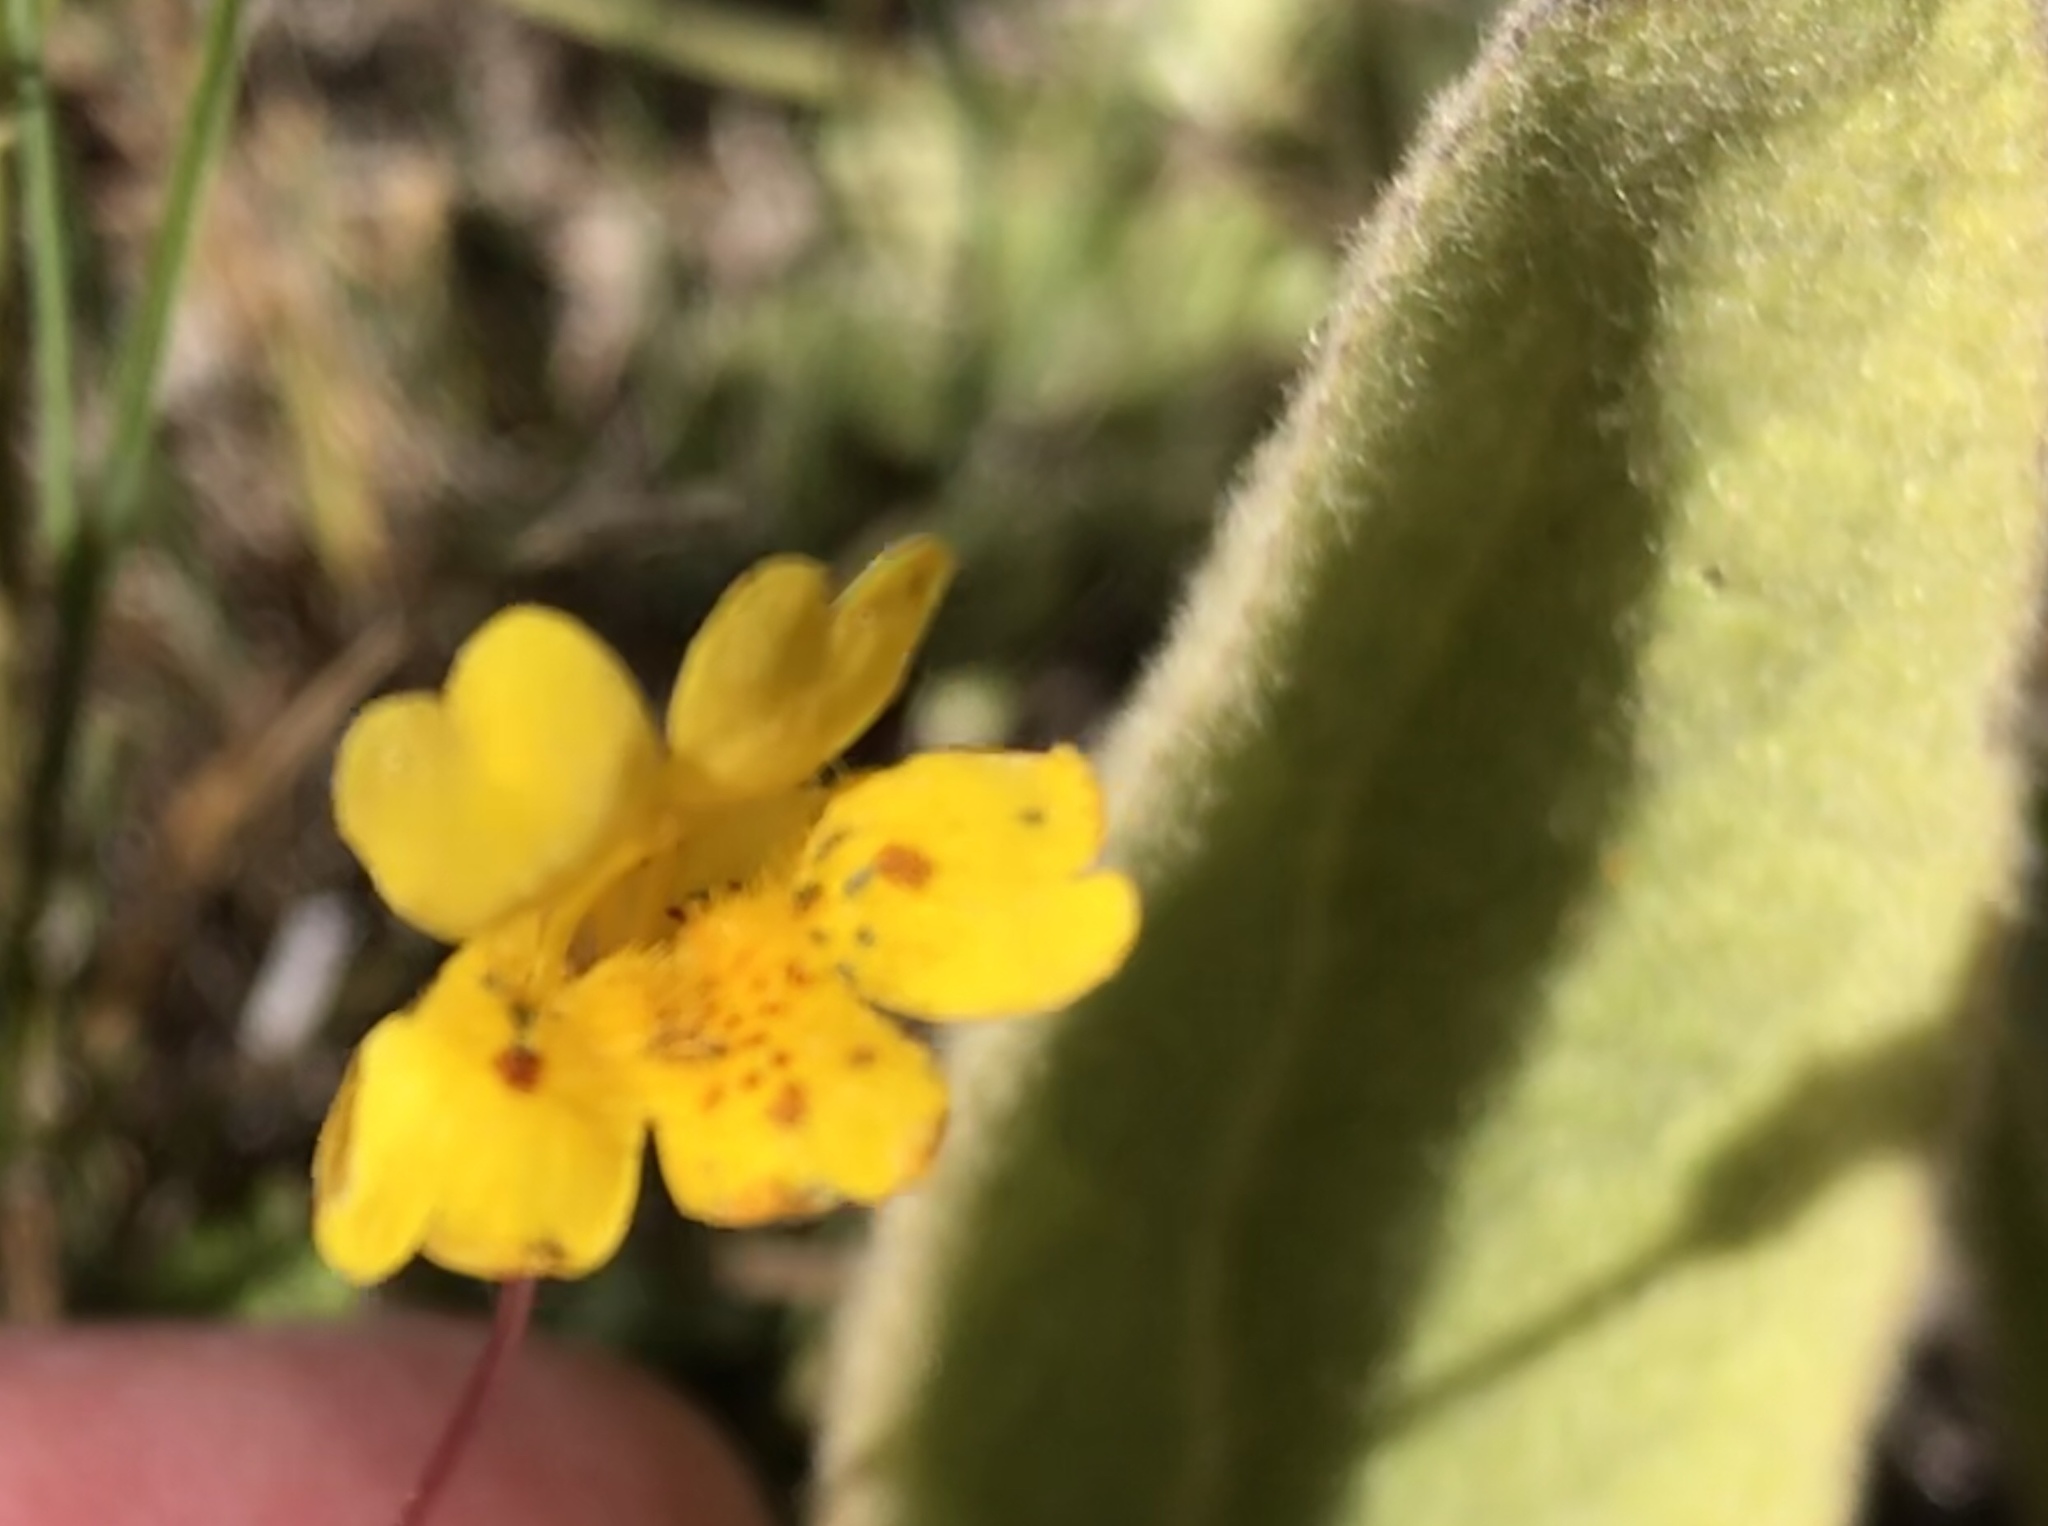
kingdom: Plantae
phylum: Tracheophyta
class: Magnoliopsida
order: Lamiales
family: Phrymaceae
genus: Erythranthe
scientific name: Erythranthe primuloides
